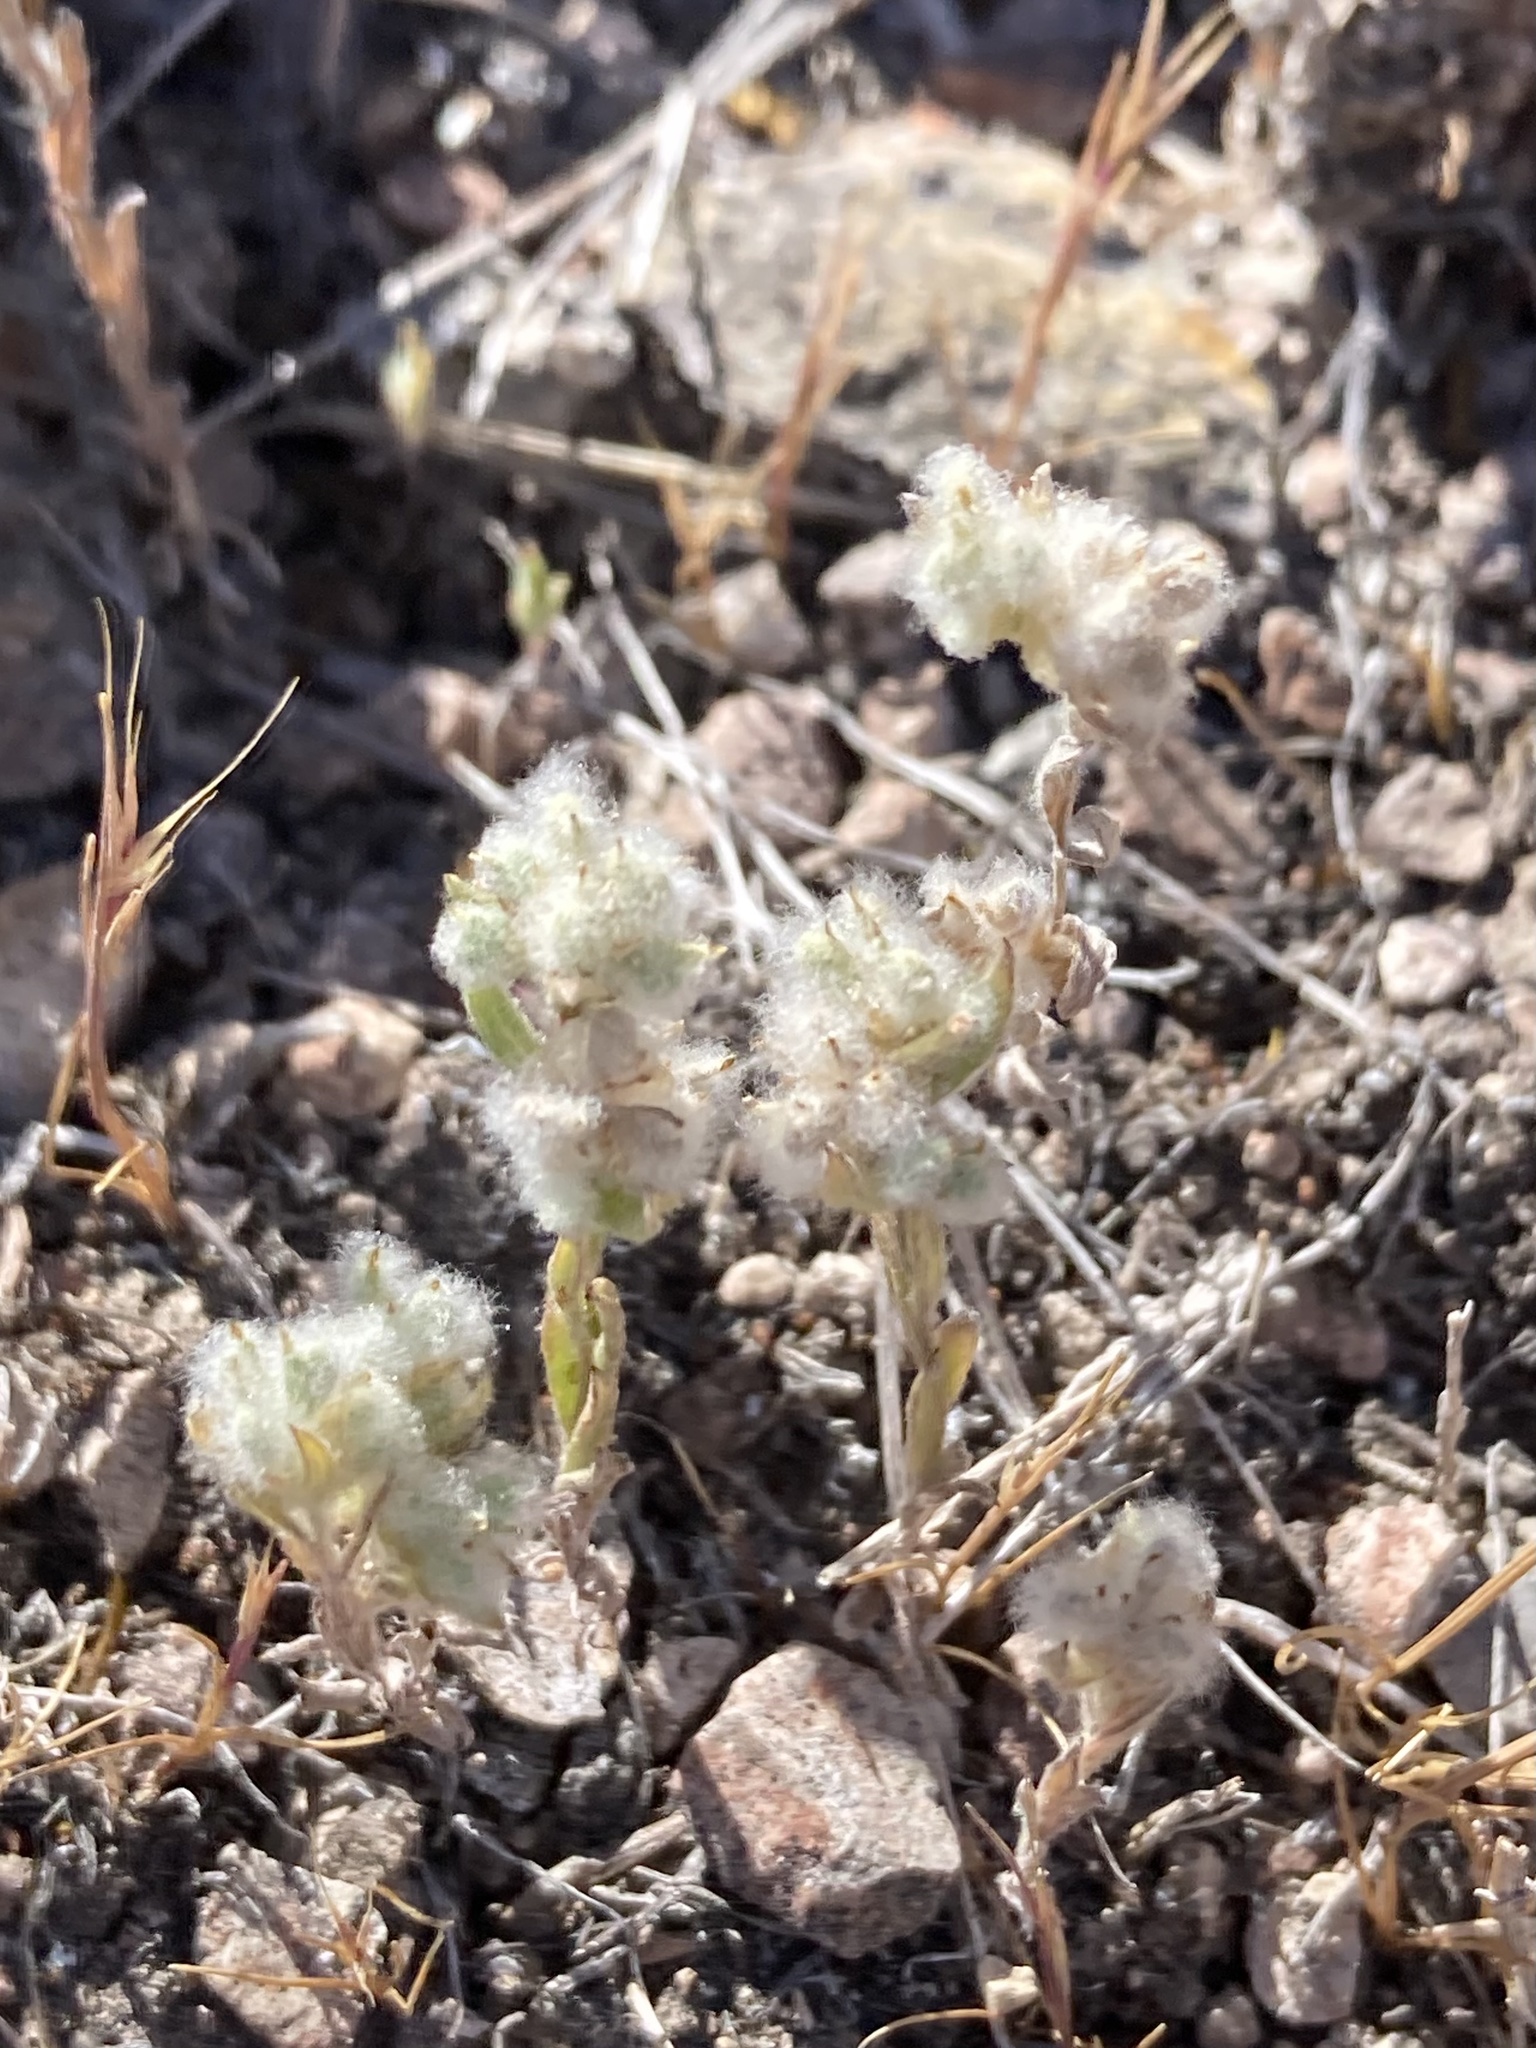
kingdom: Plantae
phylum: Tracheophyta
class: Magnoliopsida
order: Asterales
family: Asteraceae
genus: Bombycilaena
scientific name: Bombycilaena californica
